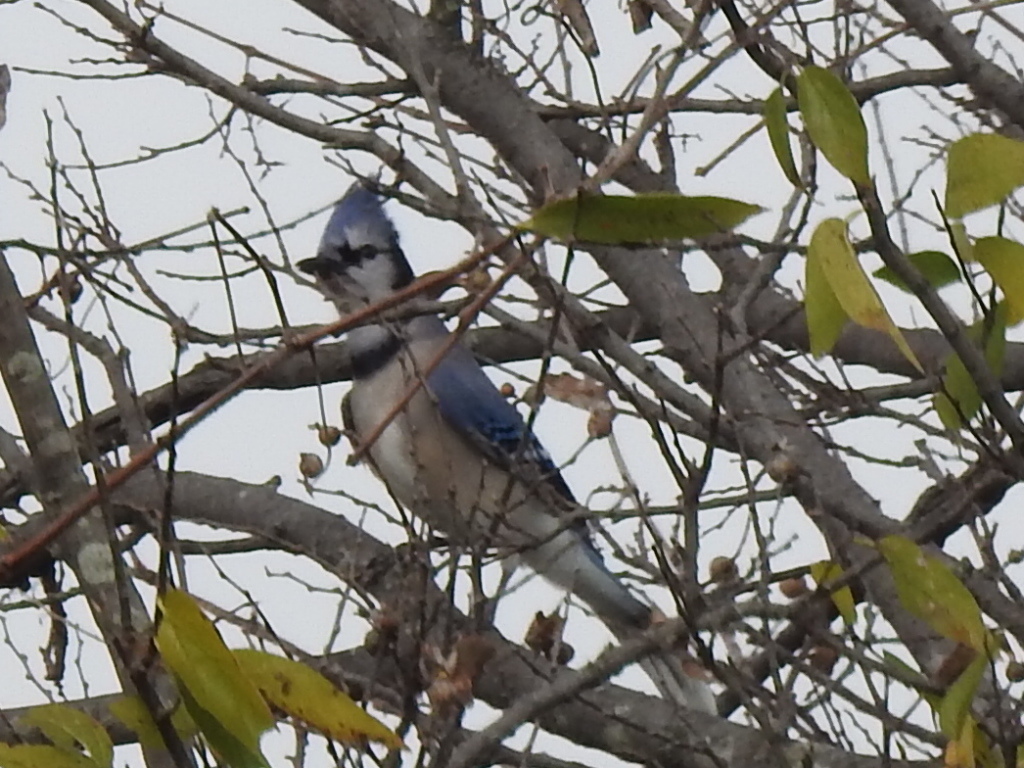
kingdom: Animalia
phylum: Chordata
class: Aves
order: Passeriformes
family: Corvidae
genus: Cyanocitta
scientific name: Cyanocitta cristata
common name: Blue jay
